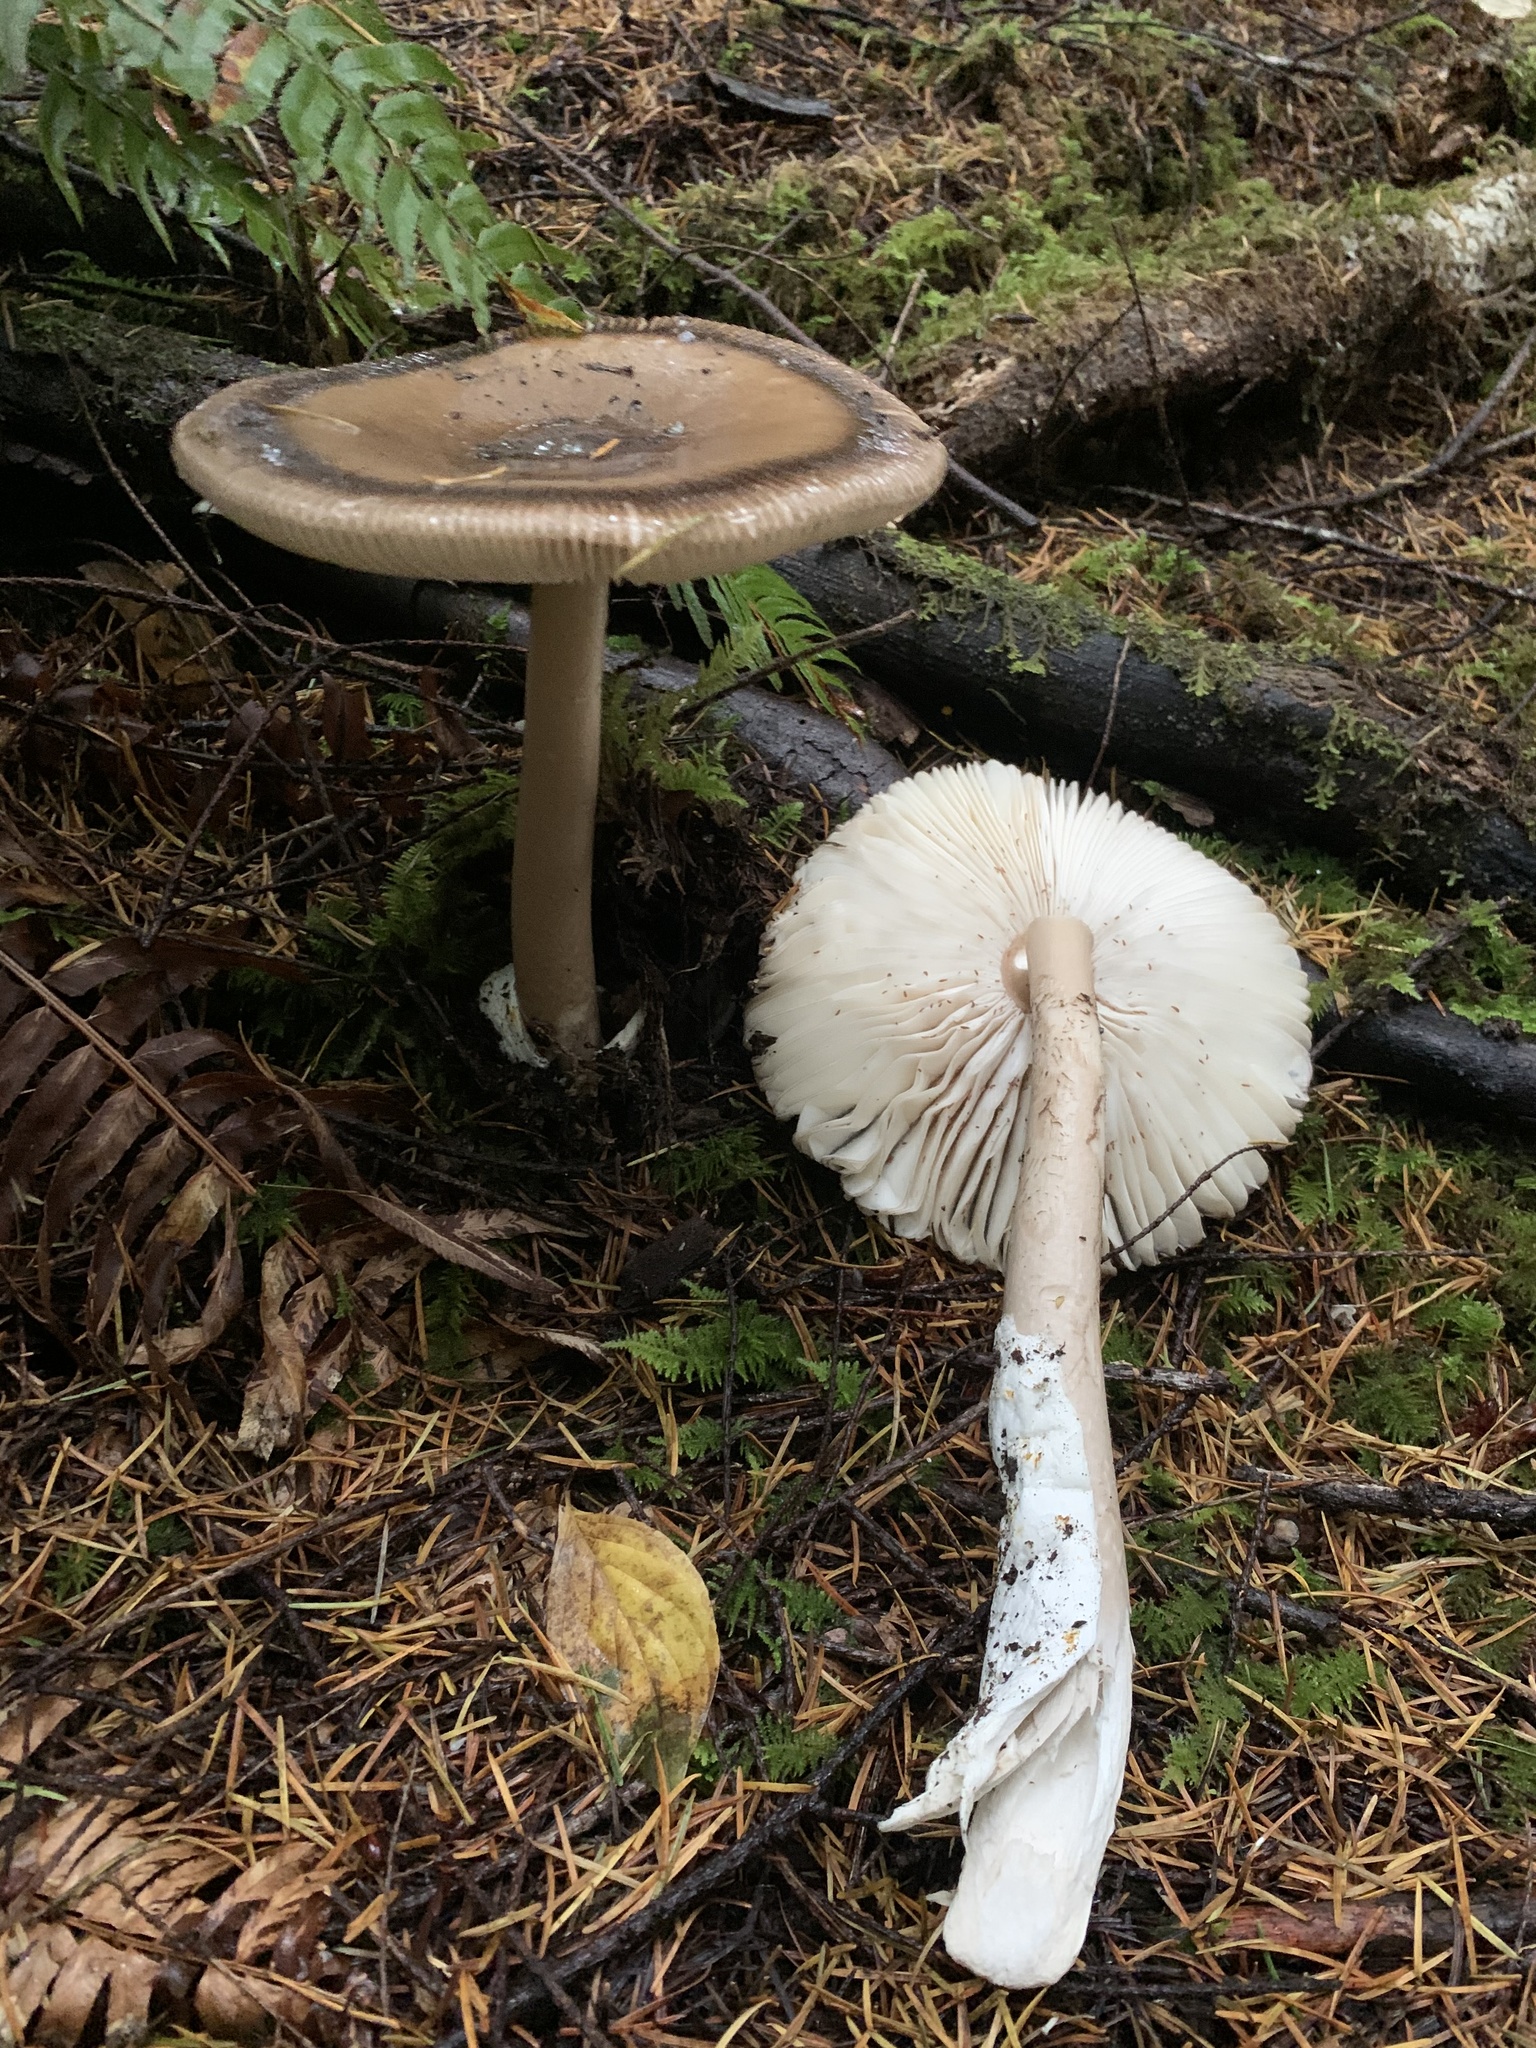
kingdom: Fungi
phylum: Basidiomycota
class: Agaricomycetes
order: Agaricales
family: Amanitaceae
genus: Amanita
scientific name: Amanita pachycolea
